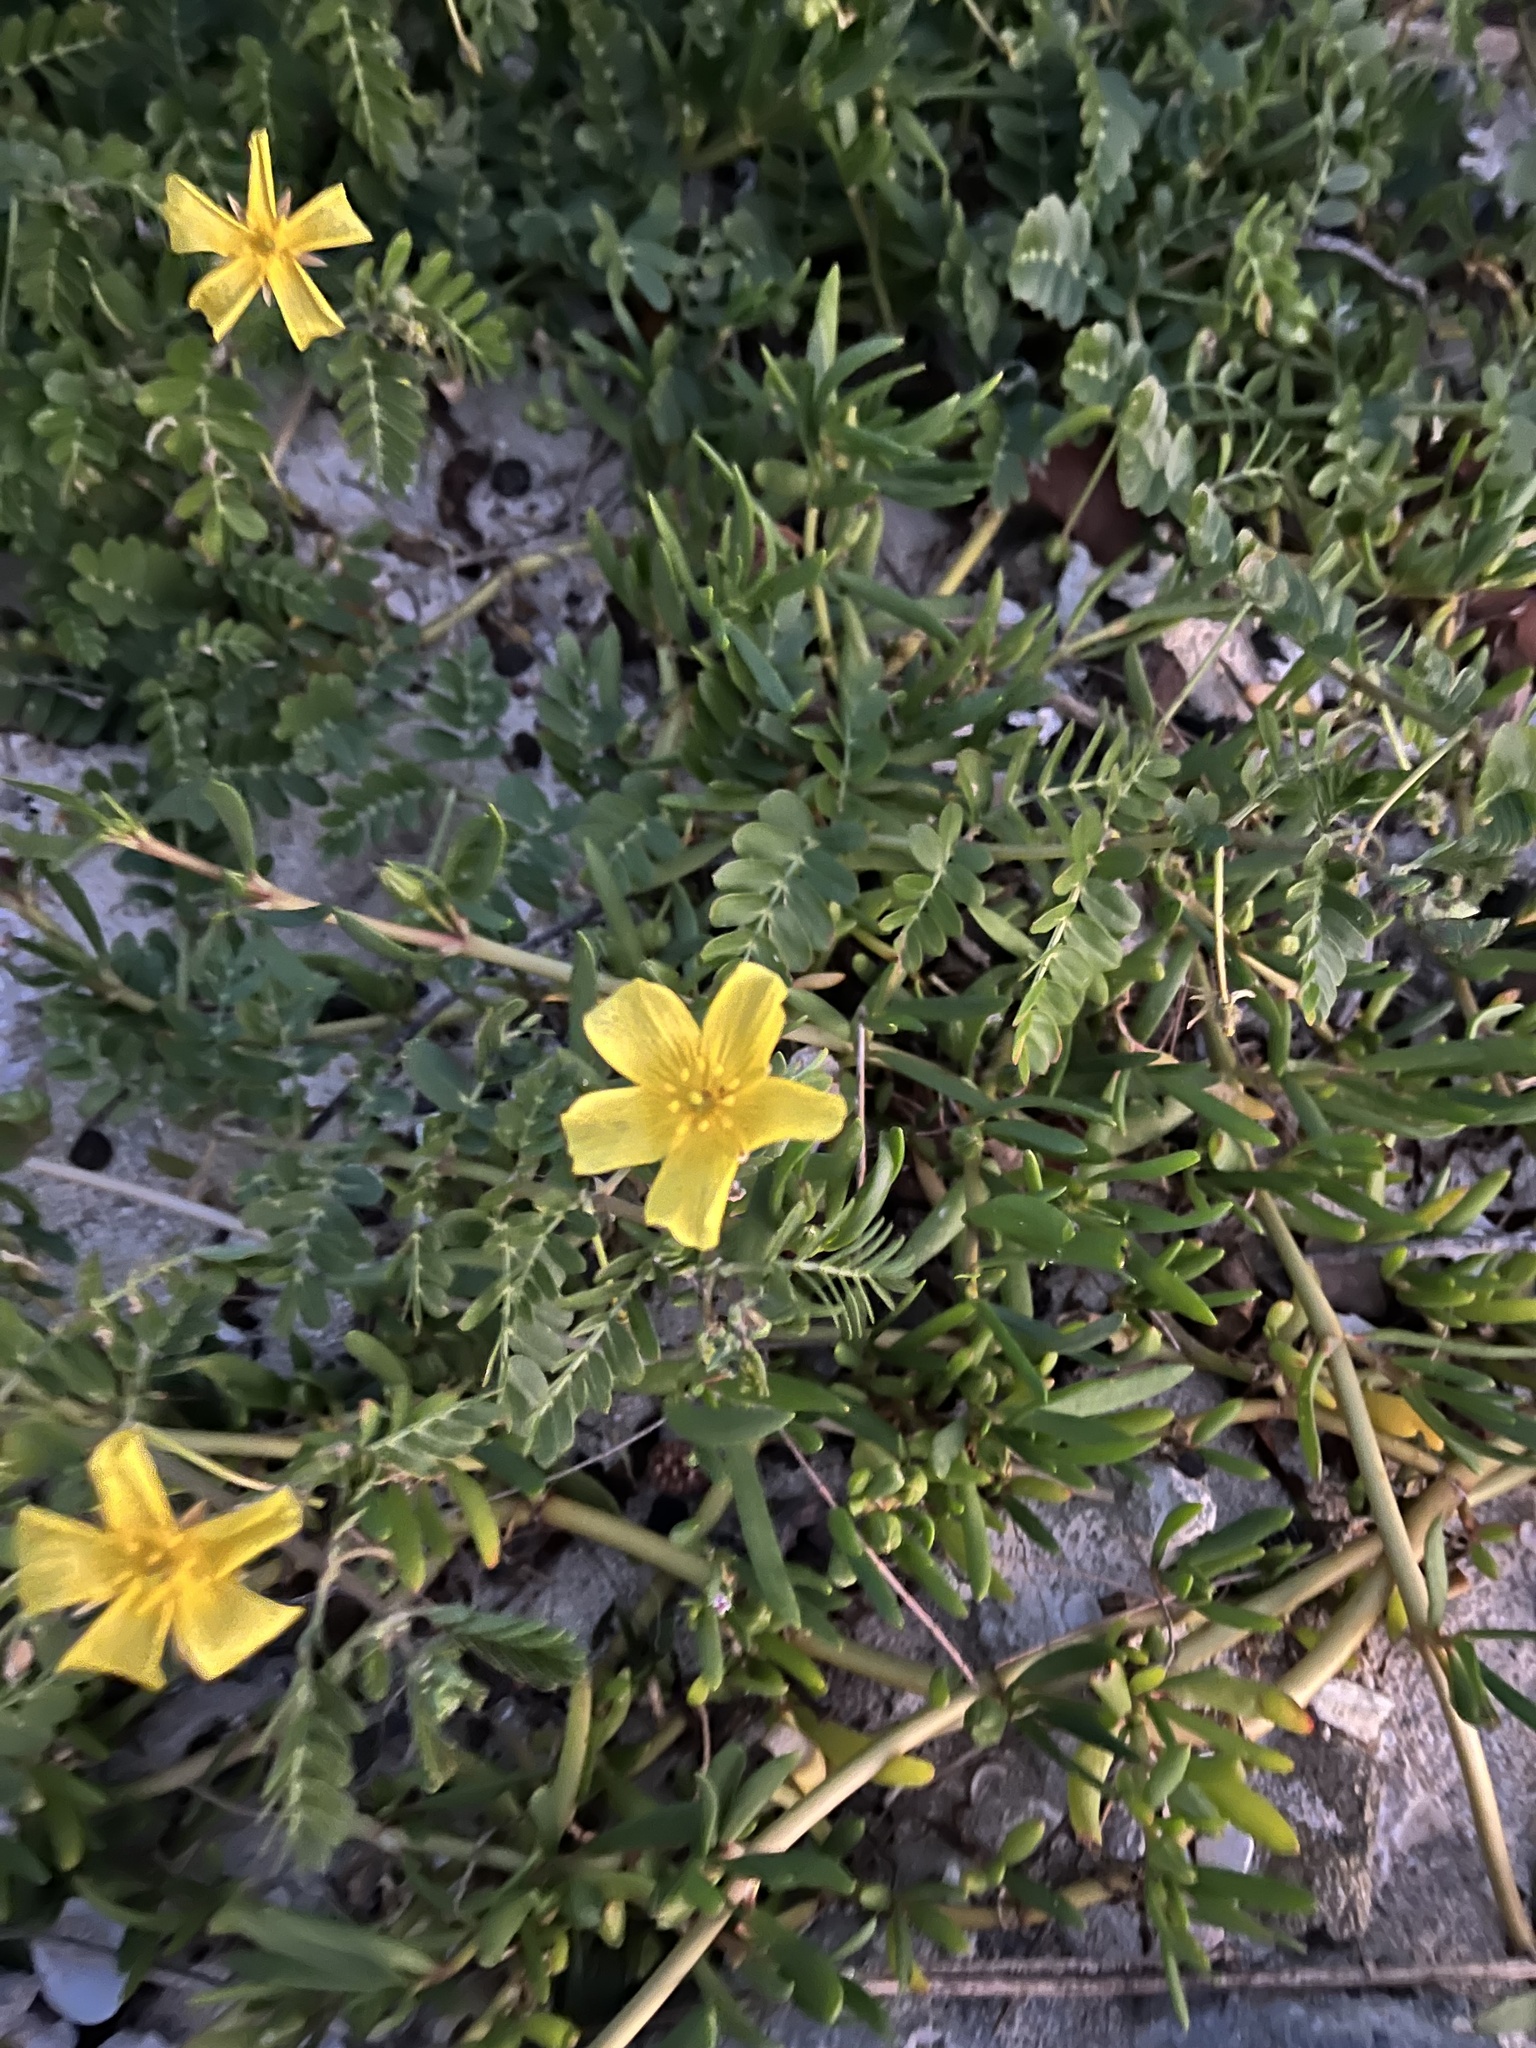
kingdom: Plantae
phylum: Tracheophyta
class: Magnoliopsida
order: Zygophyllales
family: Zygophyllaceae
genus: Tribulus
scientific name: Tribulus cistoides
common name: Jamaican feverplant
